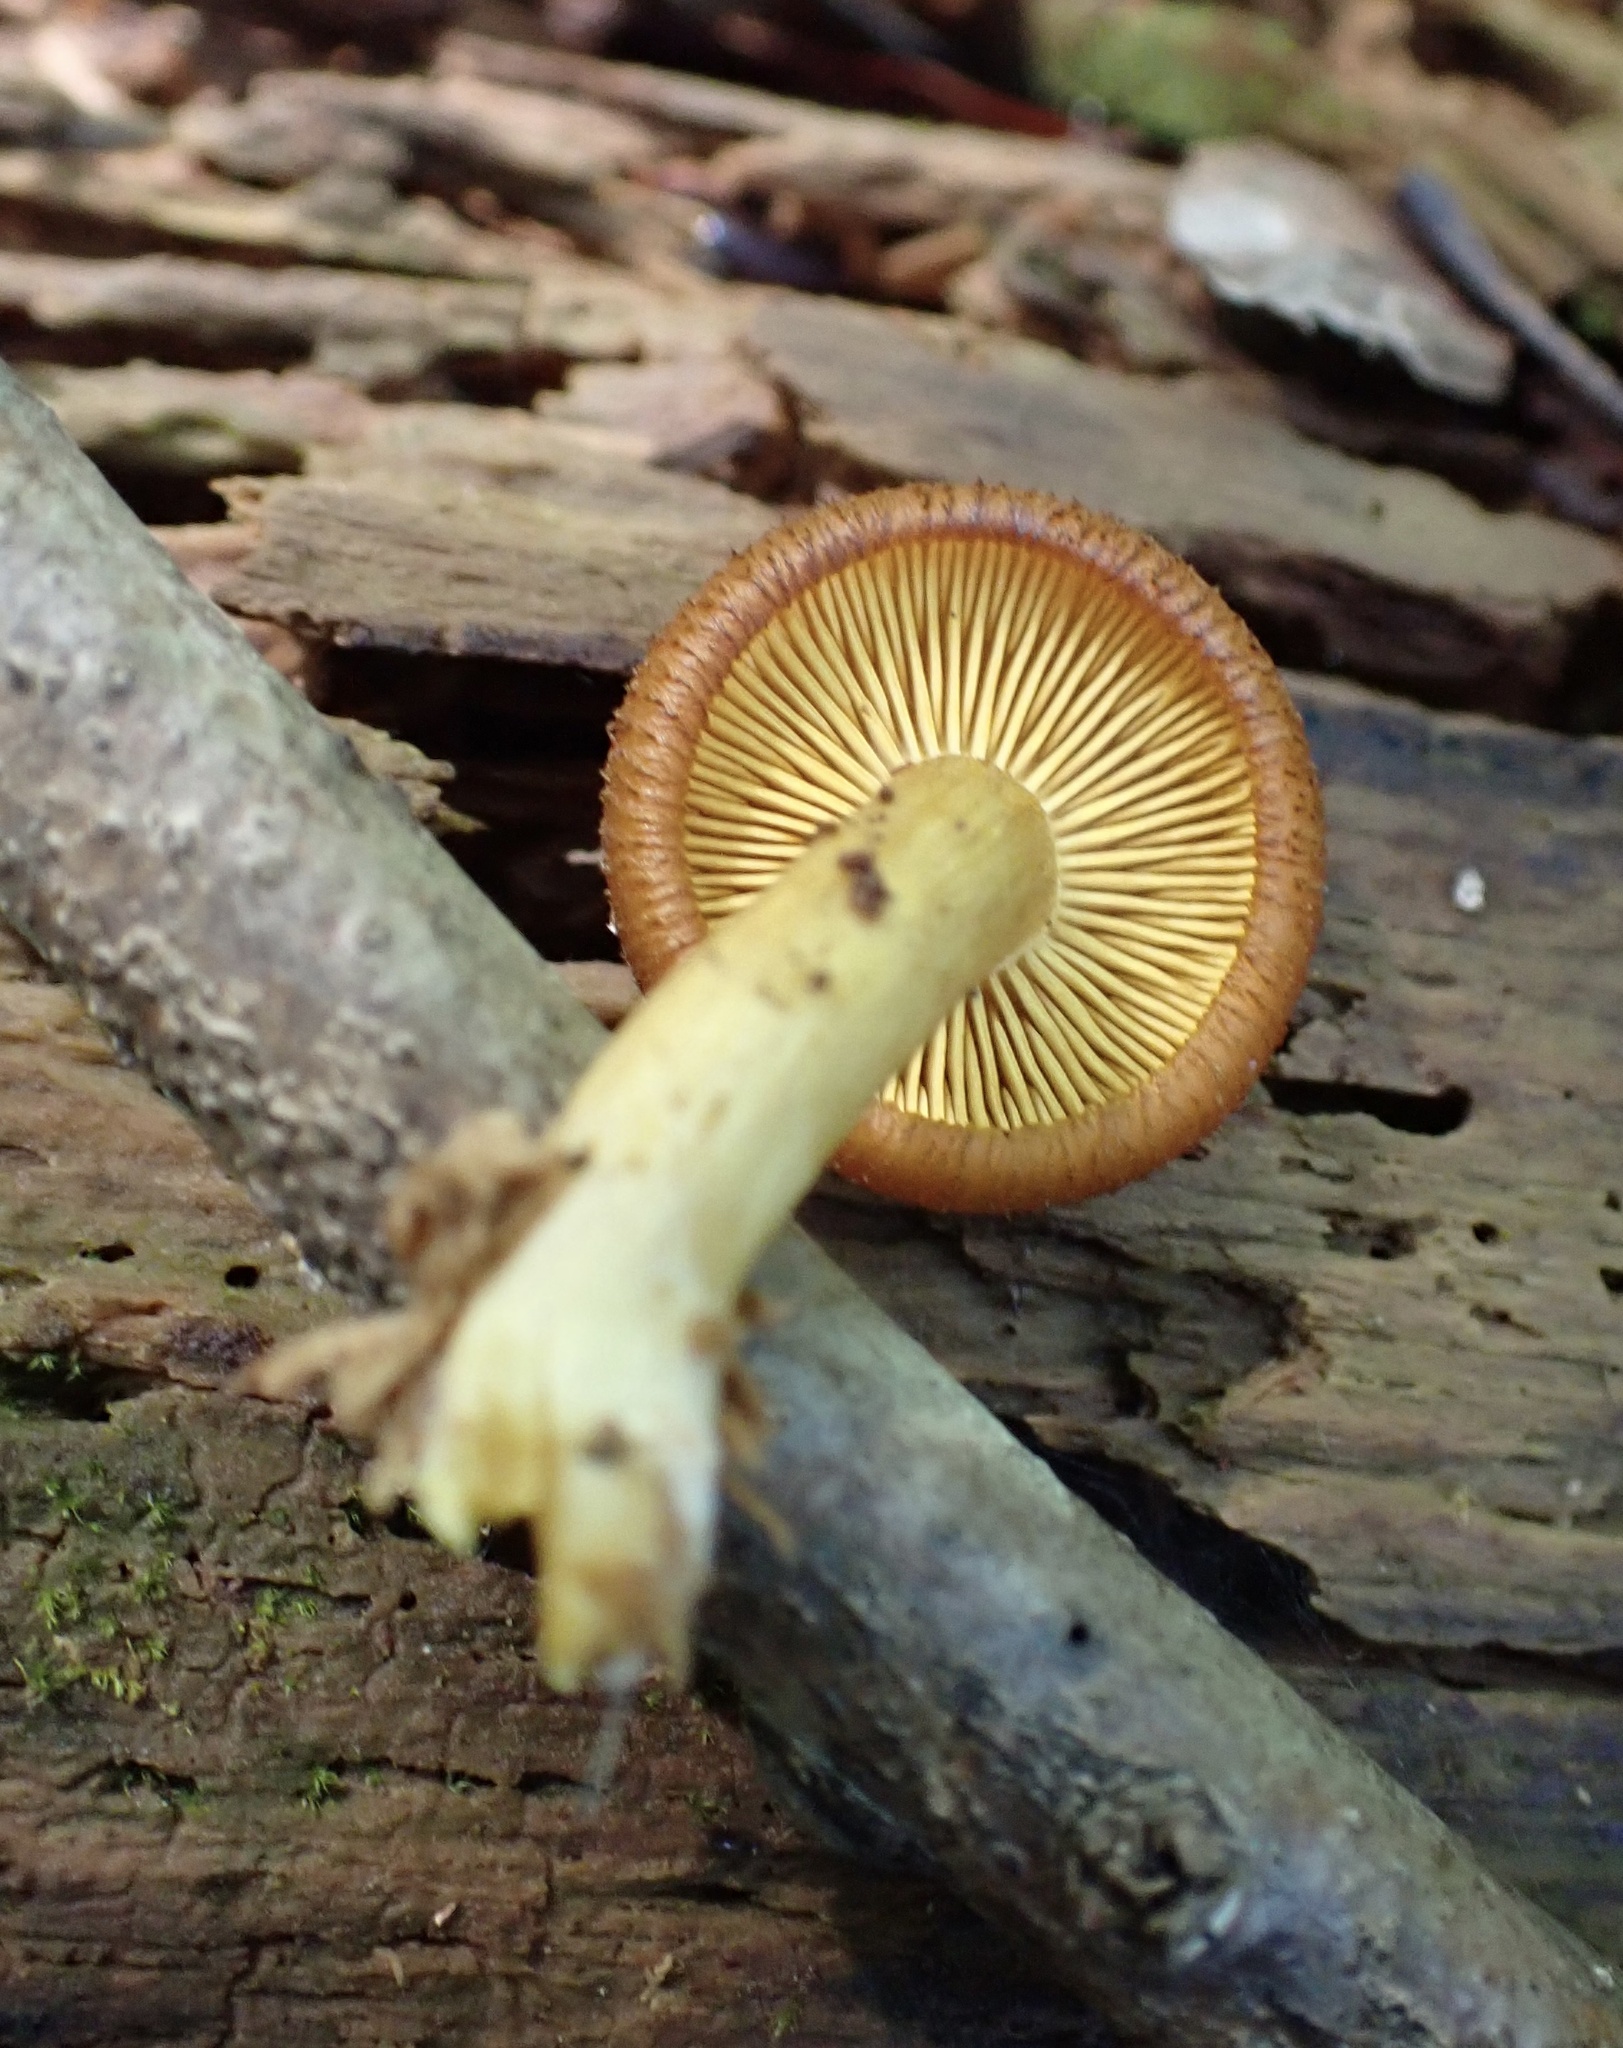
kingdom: Fungi
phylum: Basidiomycota
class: Agaricomycetes
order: Agaricales
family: Tricholomataceae
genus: Tricholomopsis
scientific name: Tricholomopsis decora
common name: Prunes and custard
